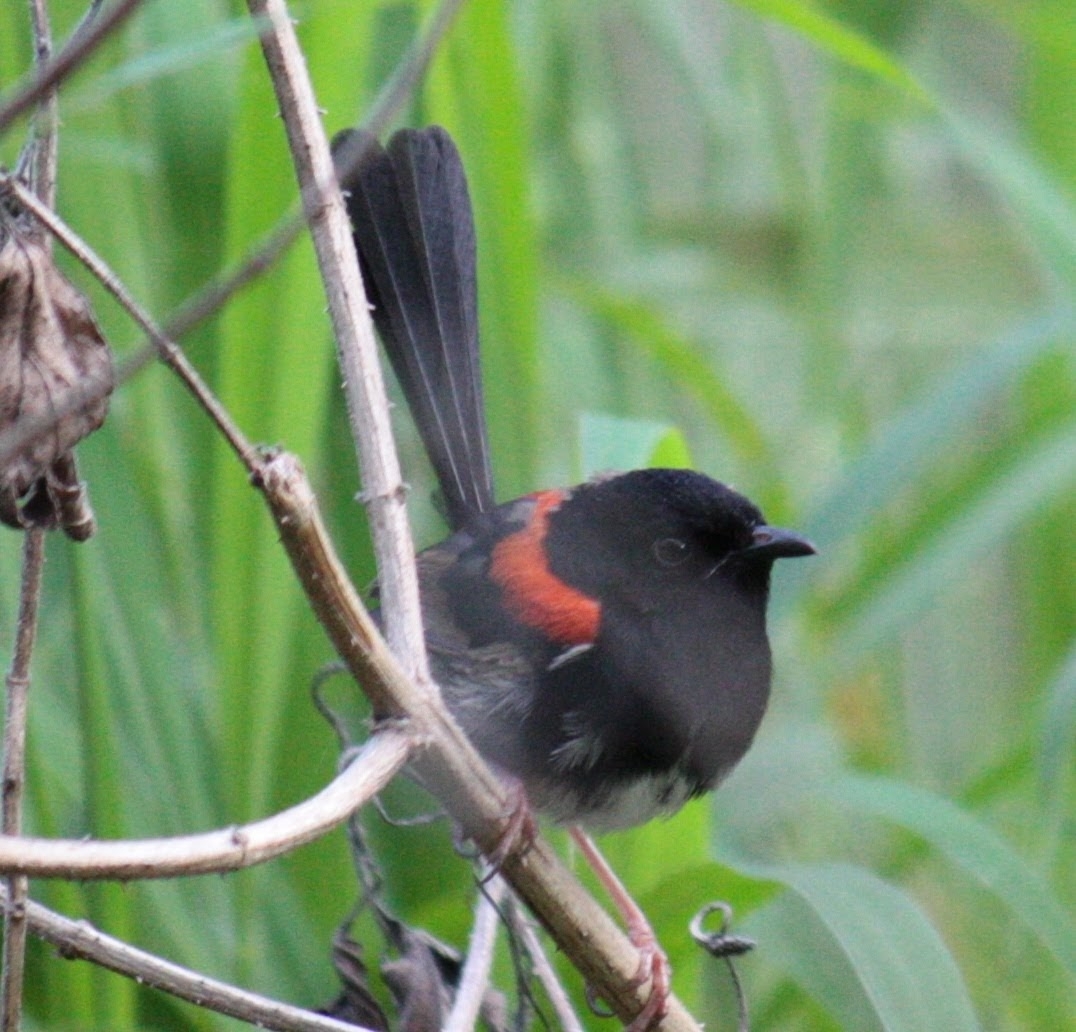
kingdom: Animalia
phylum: Chordata
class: Aves
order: Passeriformes
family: Maluridae
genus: Malurus
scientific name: Malurus melanocephalus
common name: Red-backed fairywren
